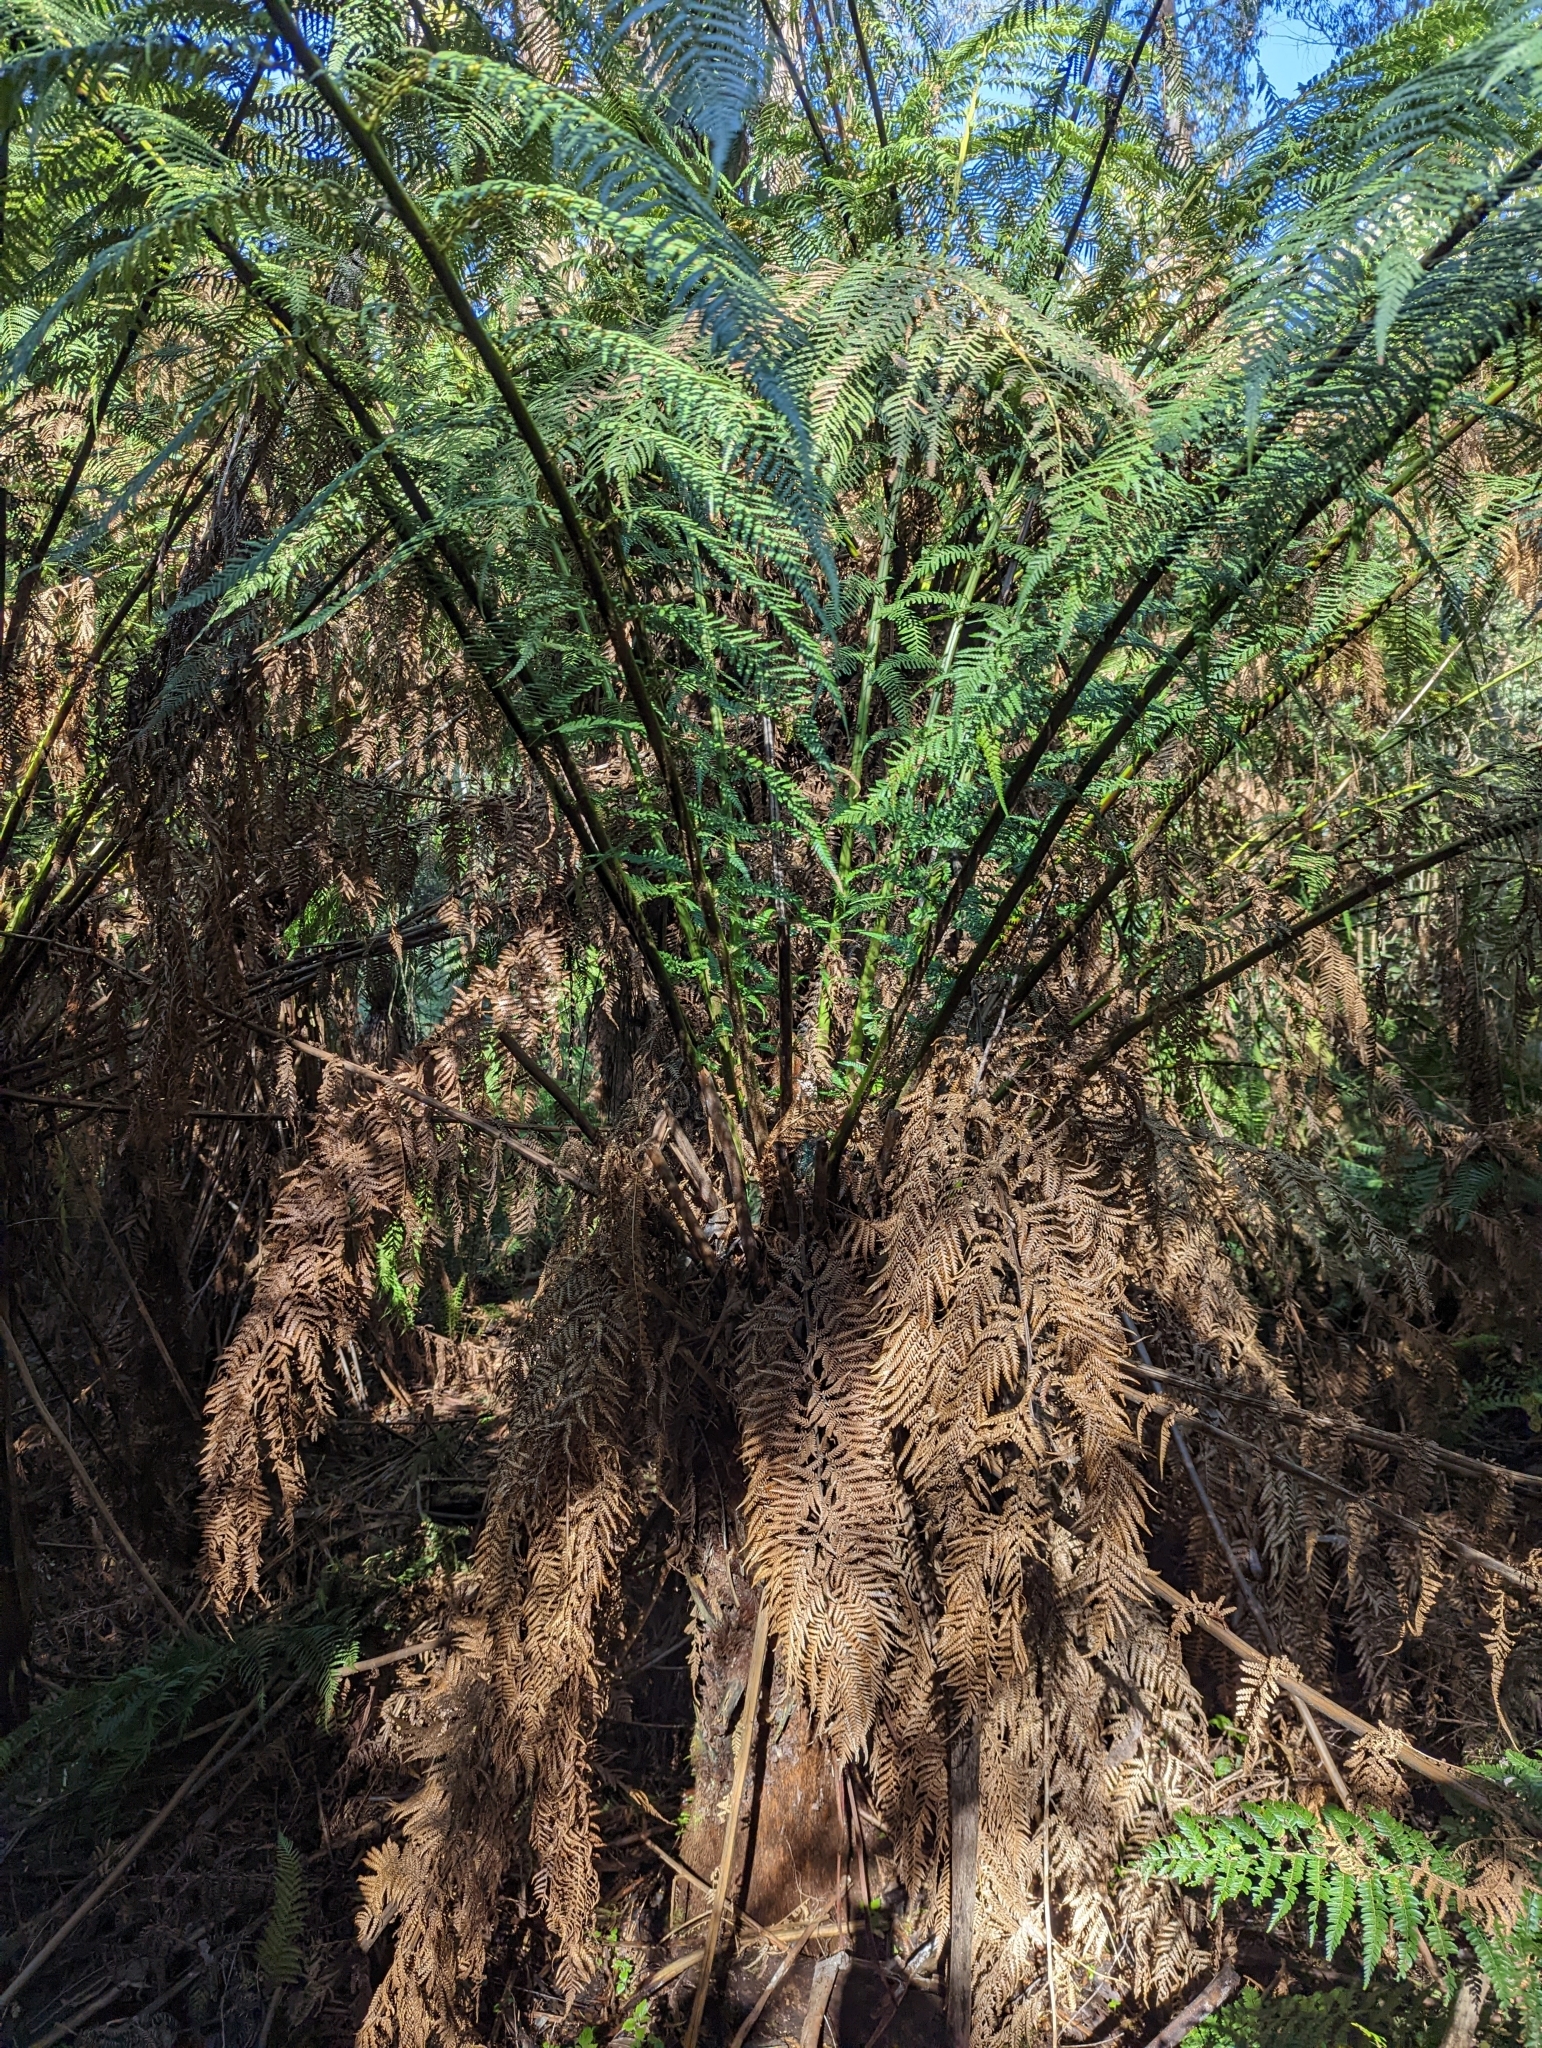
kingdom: Plantae
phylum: Tracheophyta
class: Polypodiopsida
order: Cyatheales
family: Dicksoniaceae
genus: Dicksonia
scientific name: Dicksonia antarctica
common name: Australian treefern
